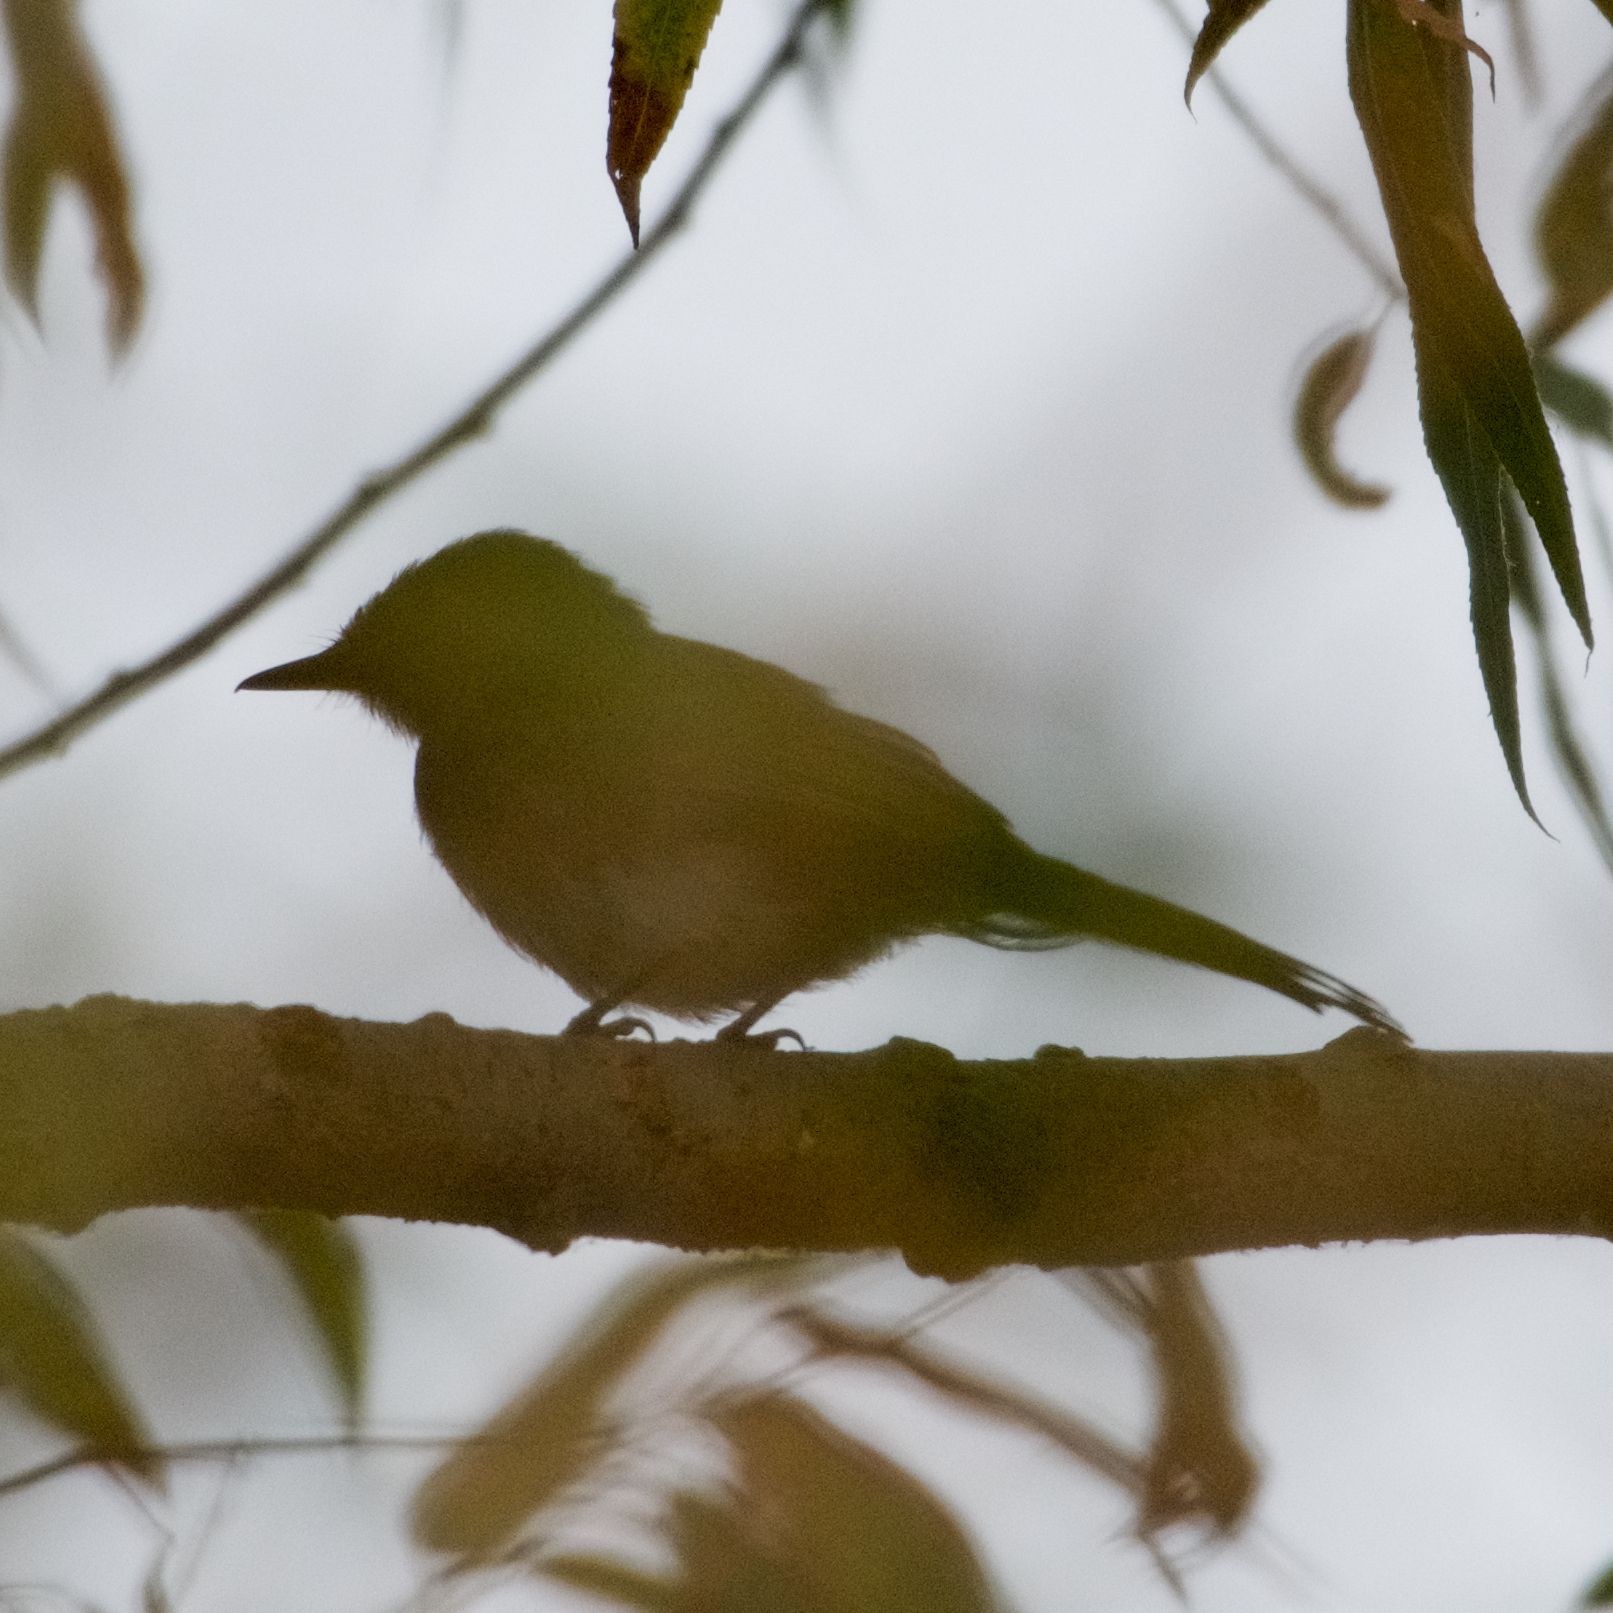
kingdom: Animalia
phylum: Chordata
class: Aves
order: Passeriformes
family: Tyrannidae
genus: Sayornis
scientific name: Sayornis nigricans
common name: Black phoebe
